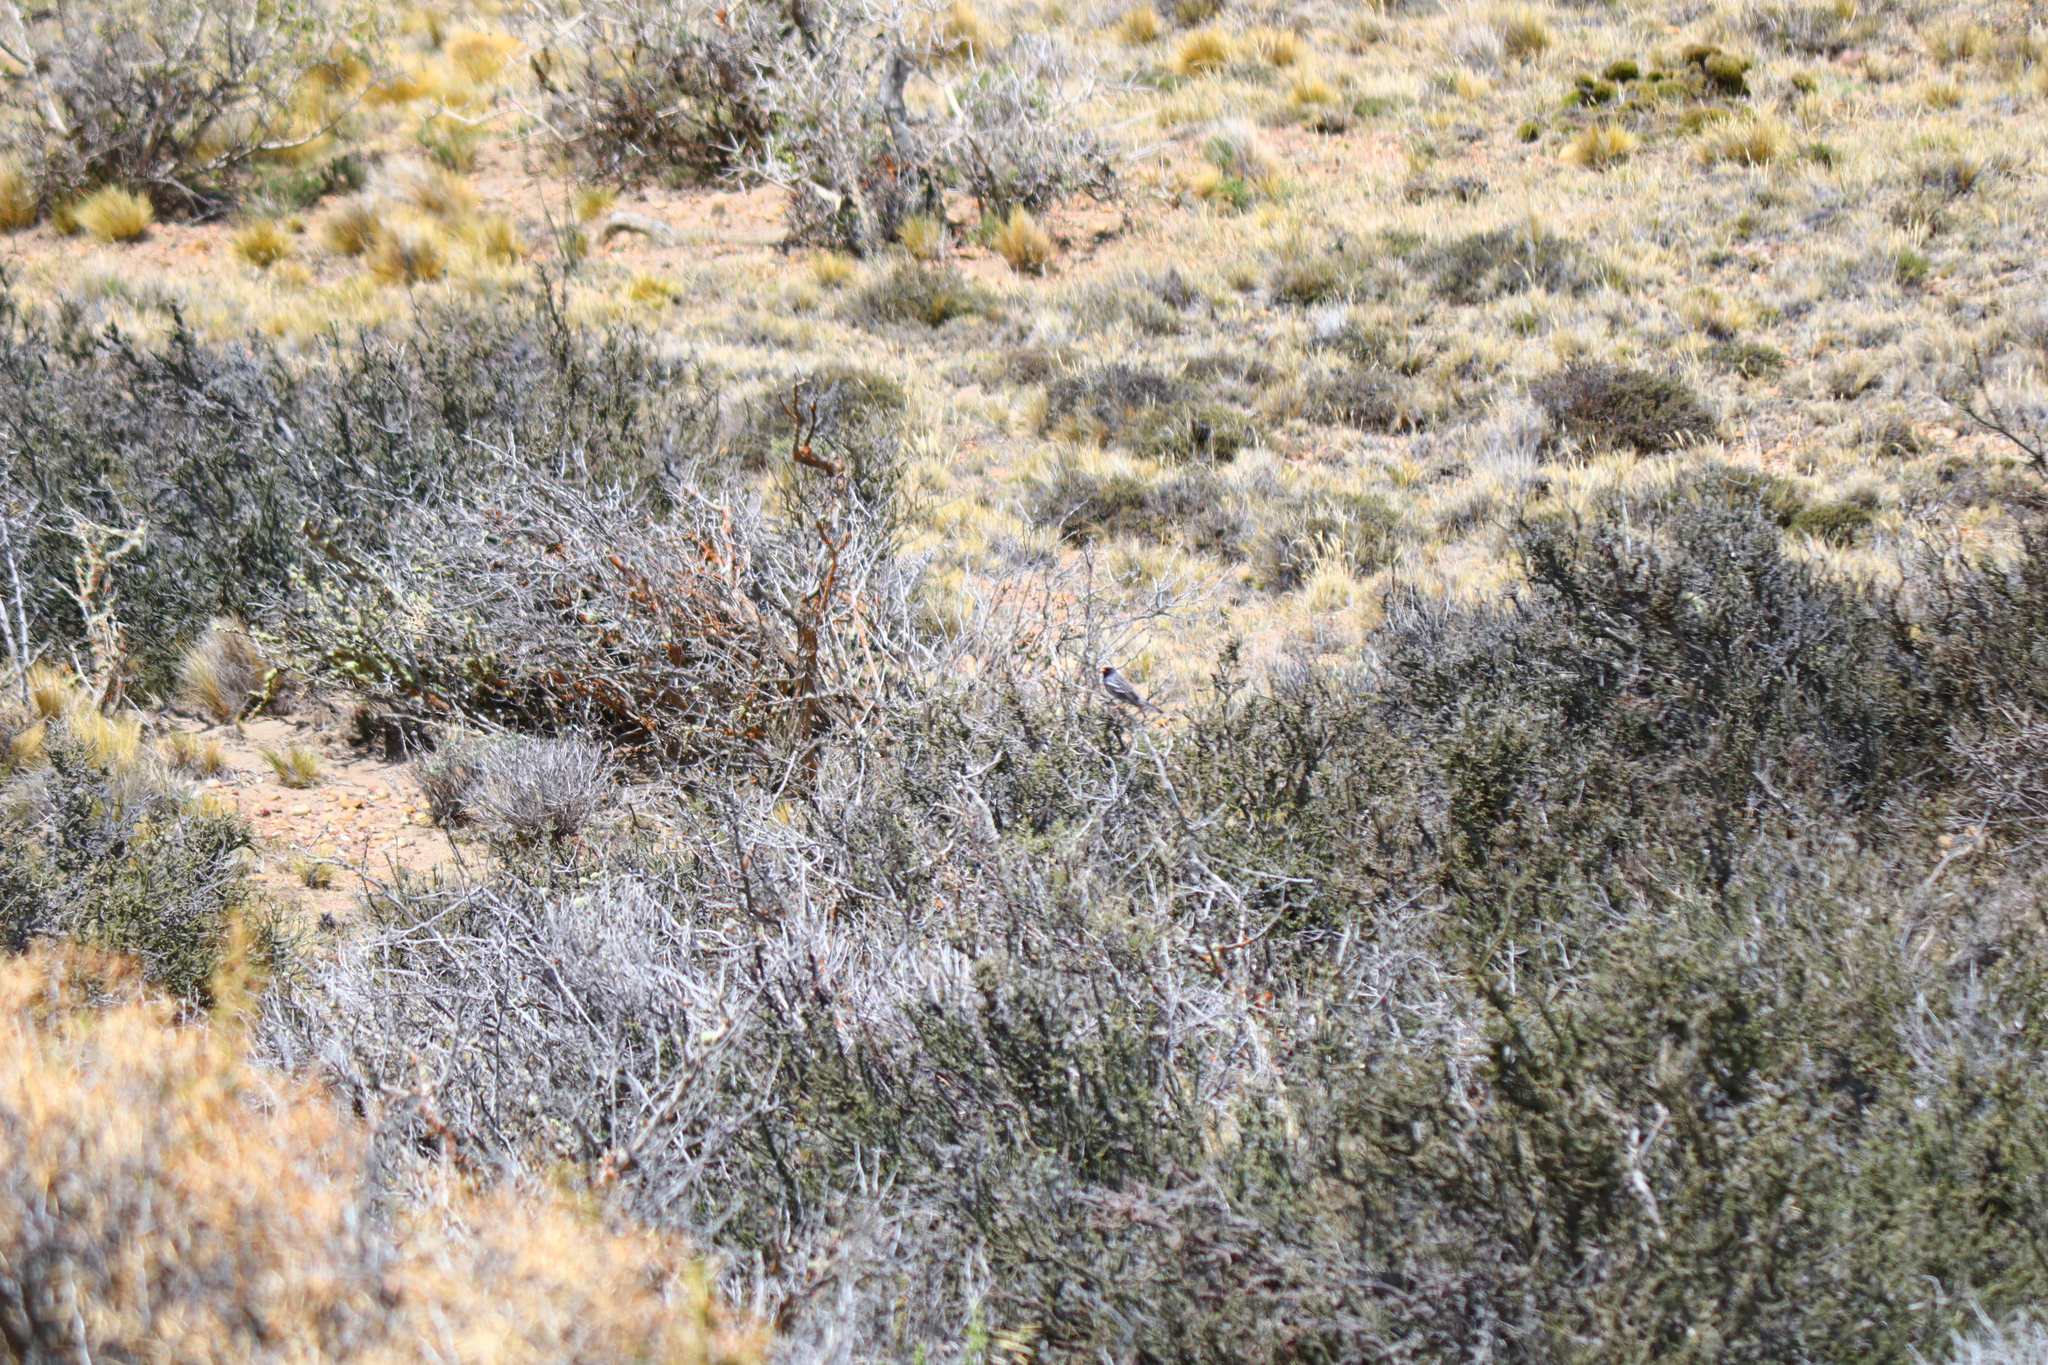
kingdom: Animalia
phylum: Chordata
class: Aves
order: Passeriformes
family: Thraupidae
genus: Rhopospina
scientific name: Rhopospina fruticeti
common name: Mourning sierra finch
